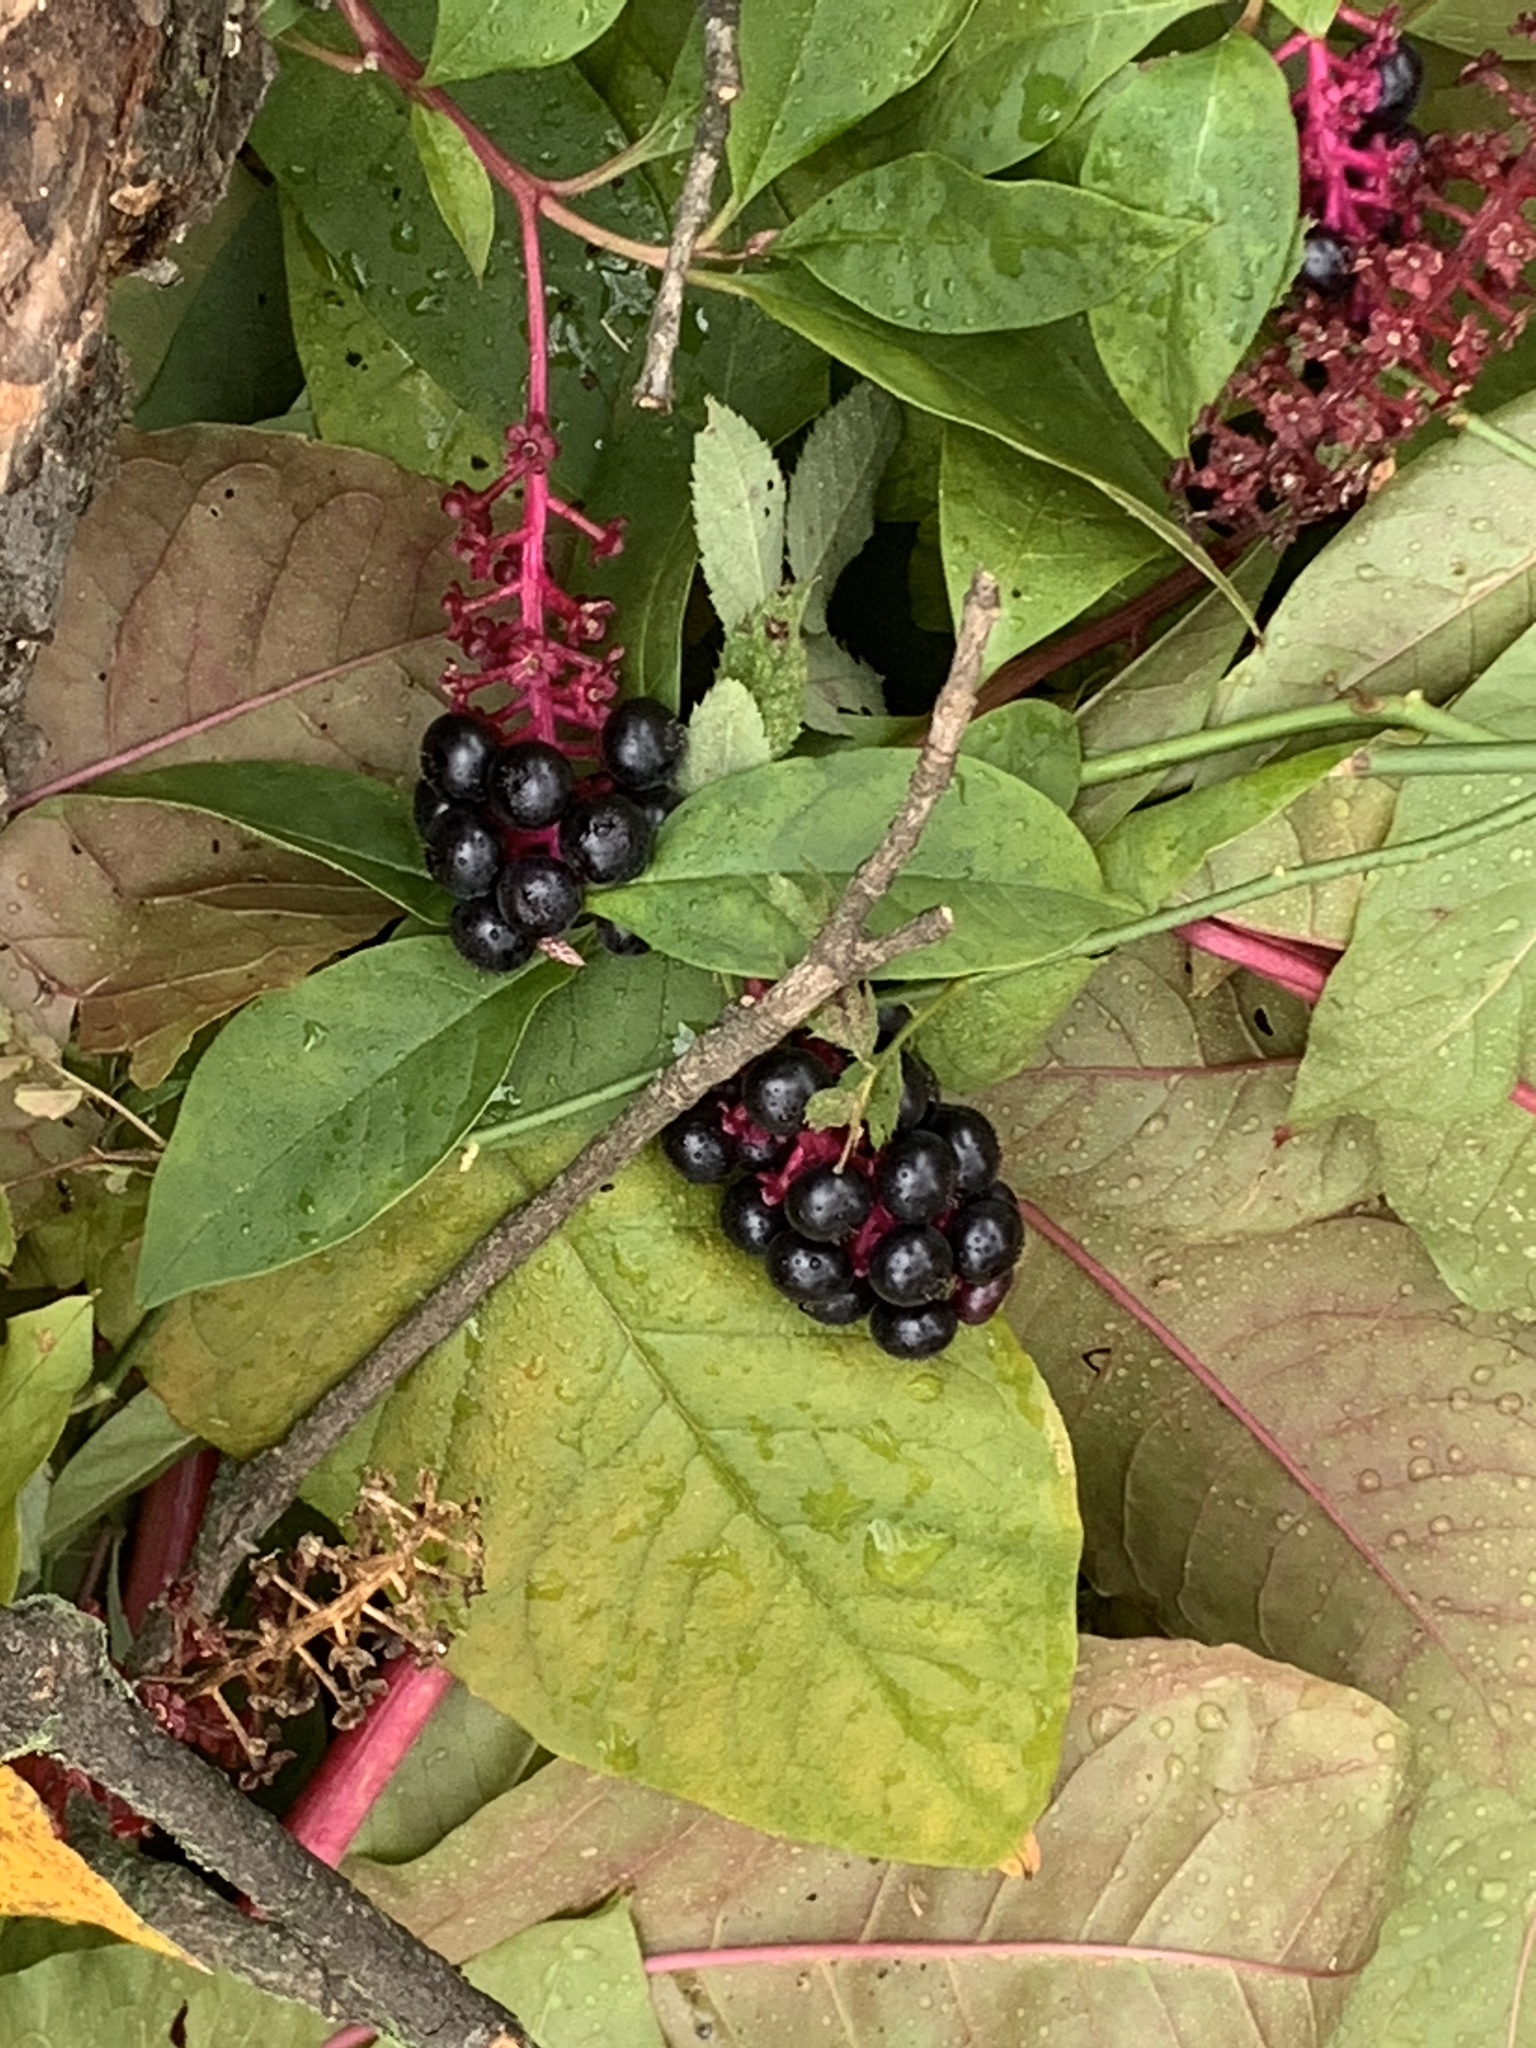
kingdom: Plantae
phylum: Tracheophyta
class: Magnoliopsida
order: Caryophyllales
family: Phytolaccaceae
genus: Phytolacca
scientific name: Phytolacca americana
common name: American pokeweed
